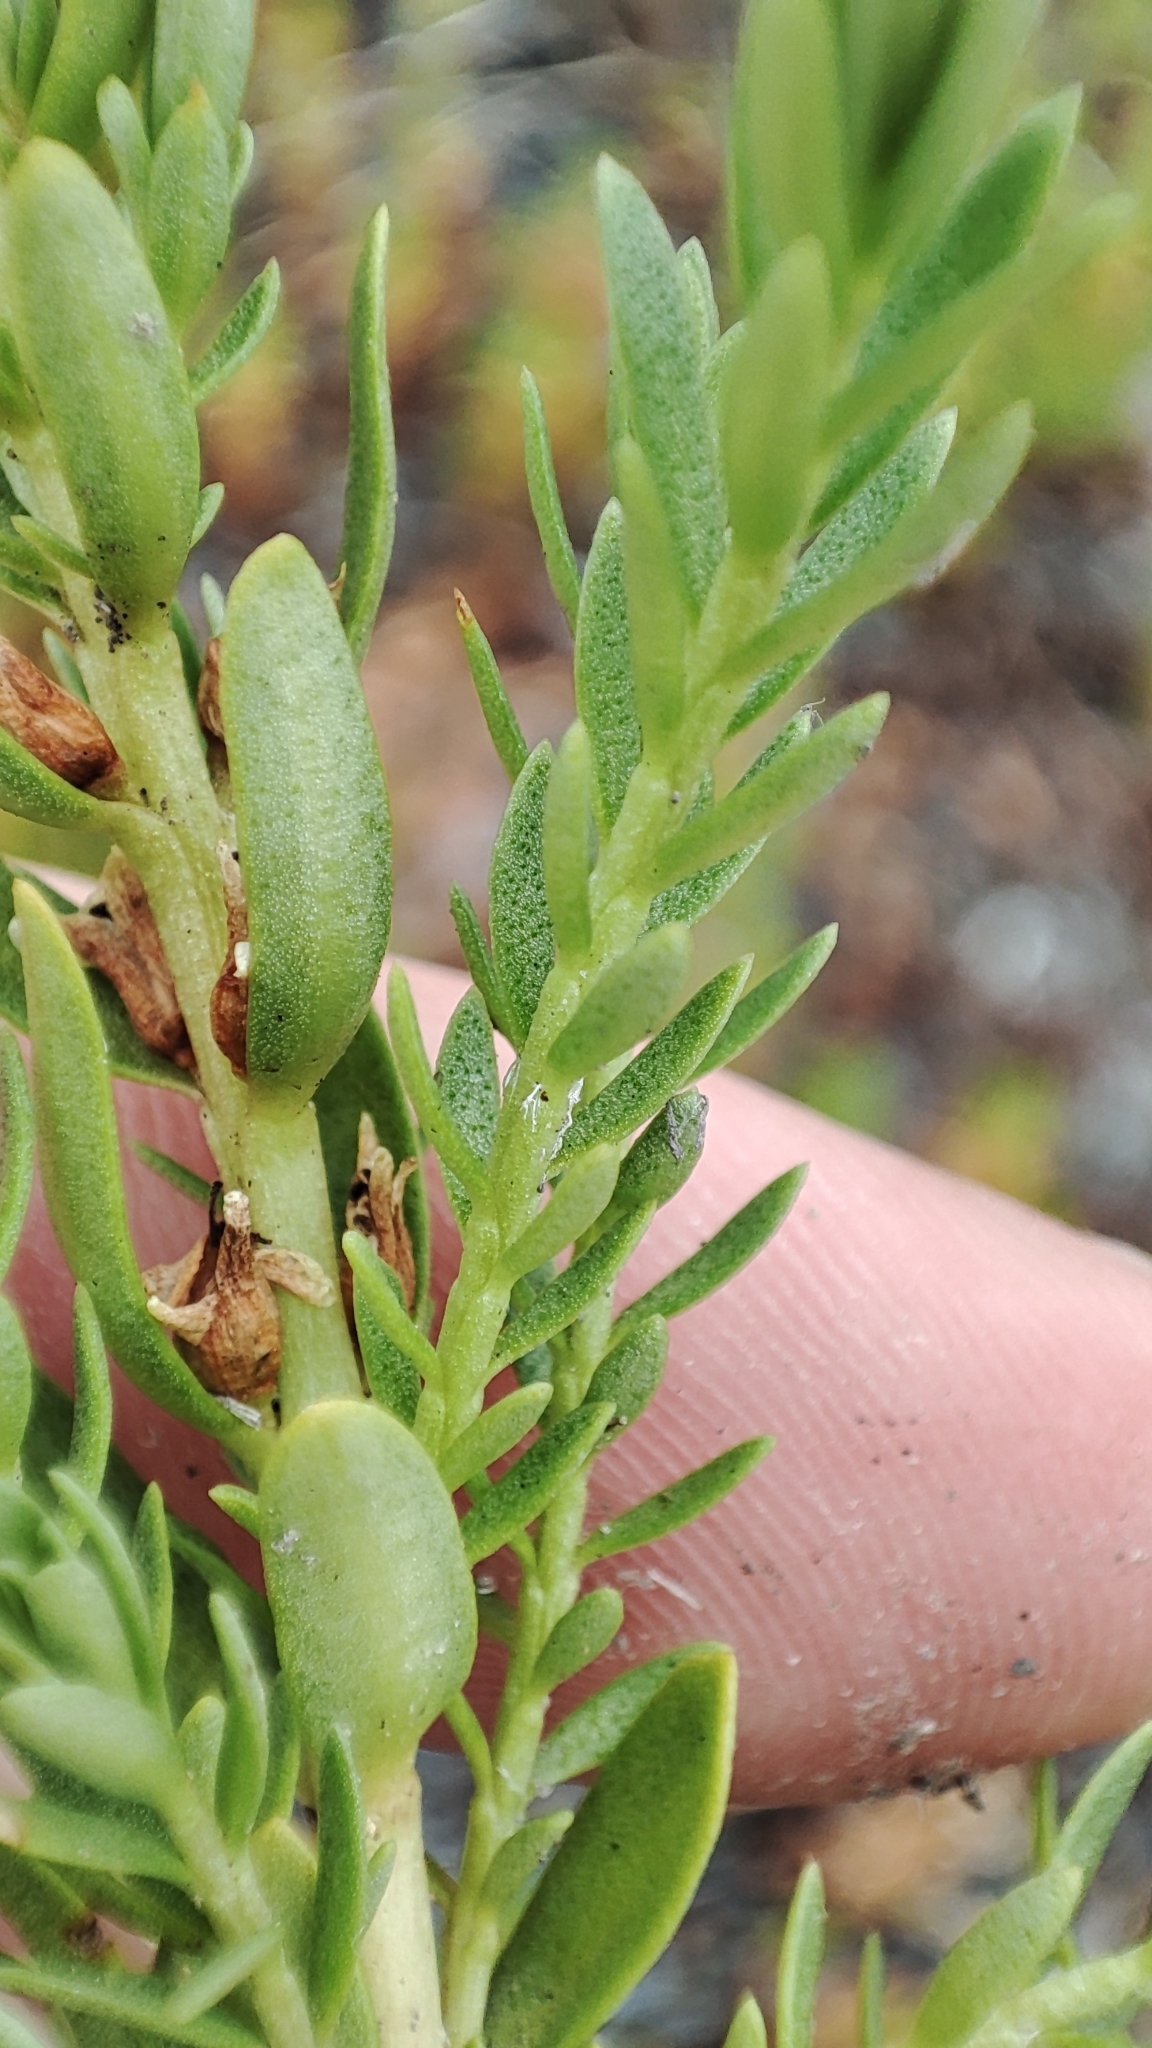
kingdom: Plantae
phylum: Tracheophyta
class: Magnoliopsida
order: Ericales
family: Primulaceae
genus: Lysimachia
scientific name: Lysimachia maritima
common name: Sea milkwort
